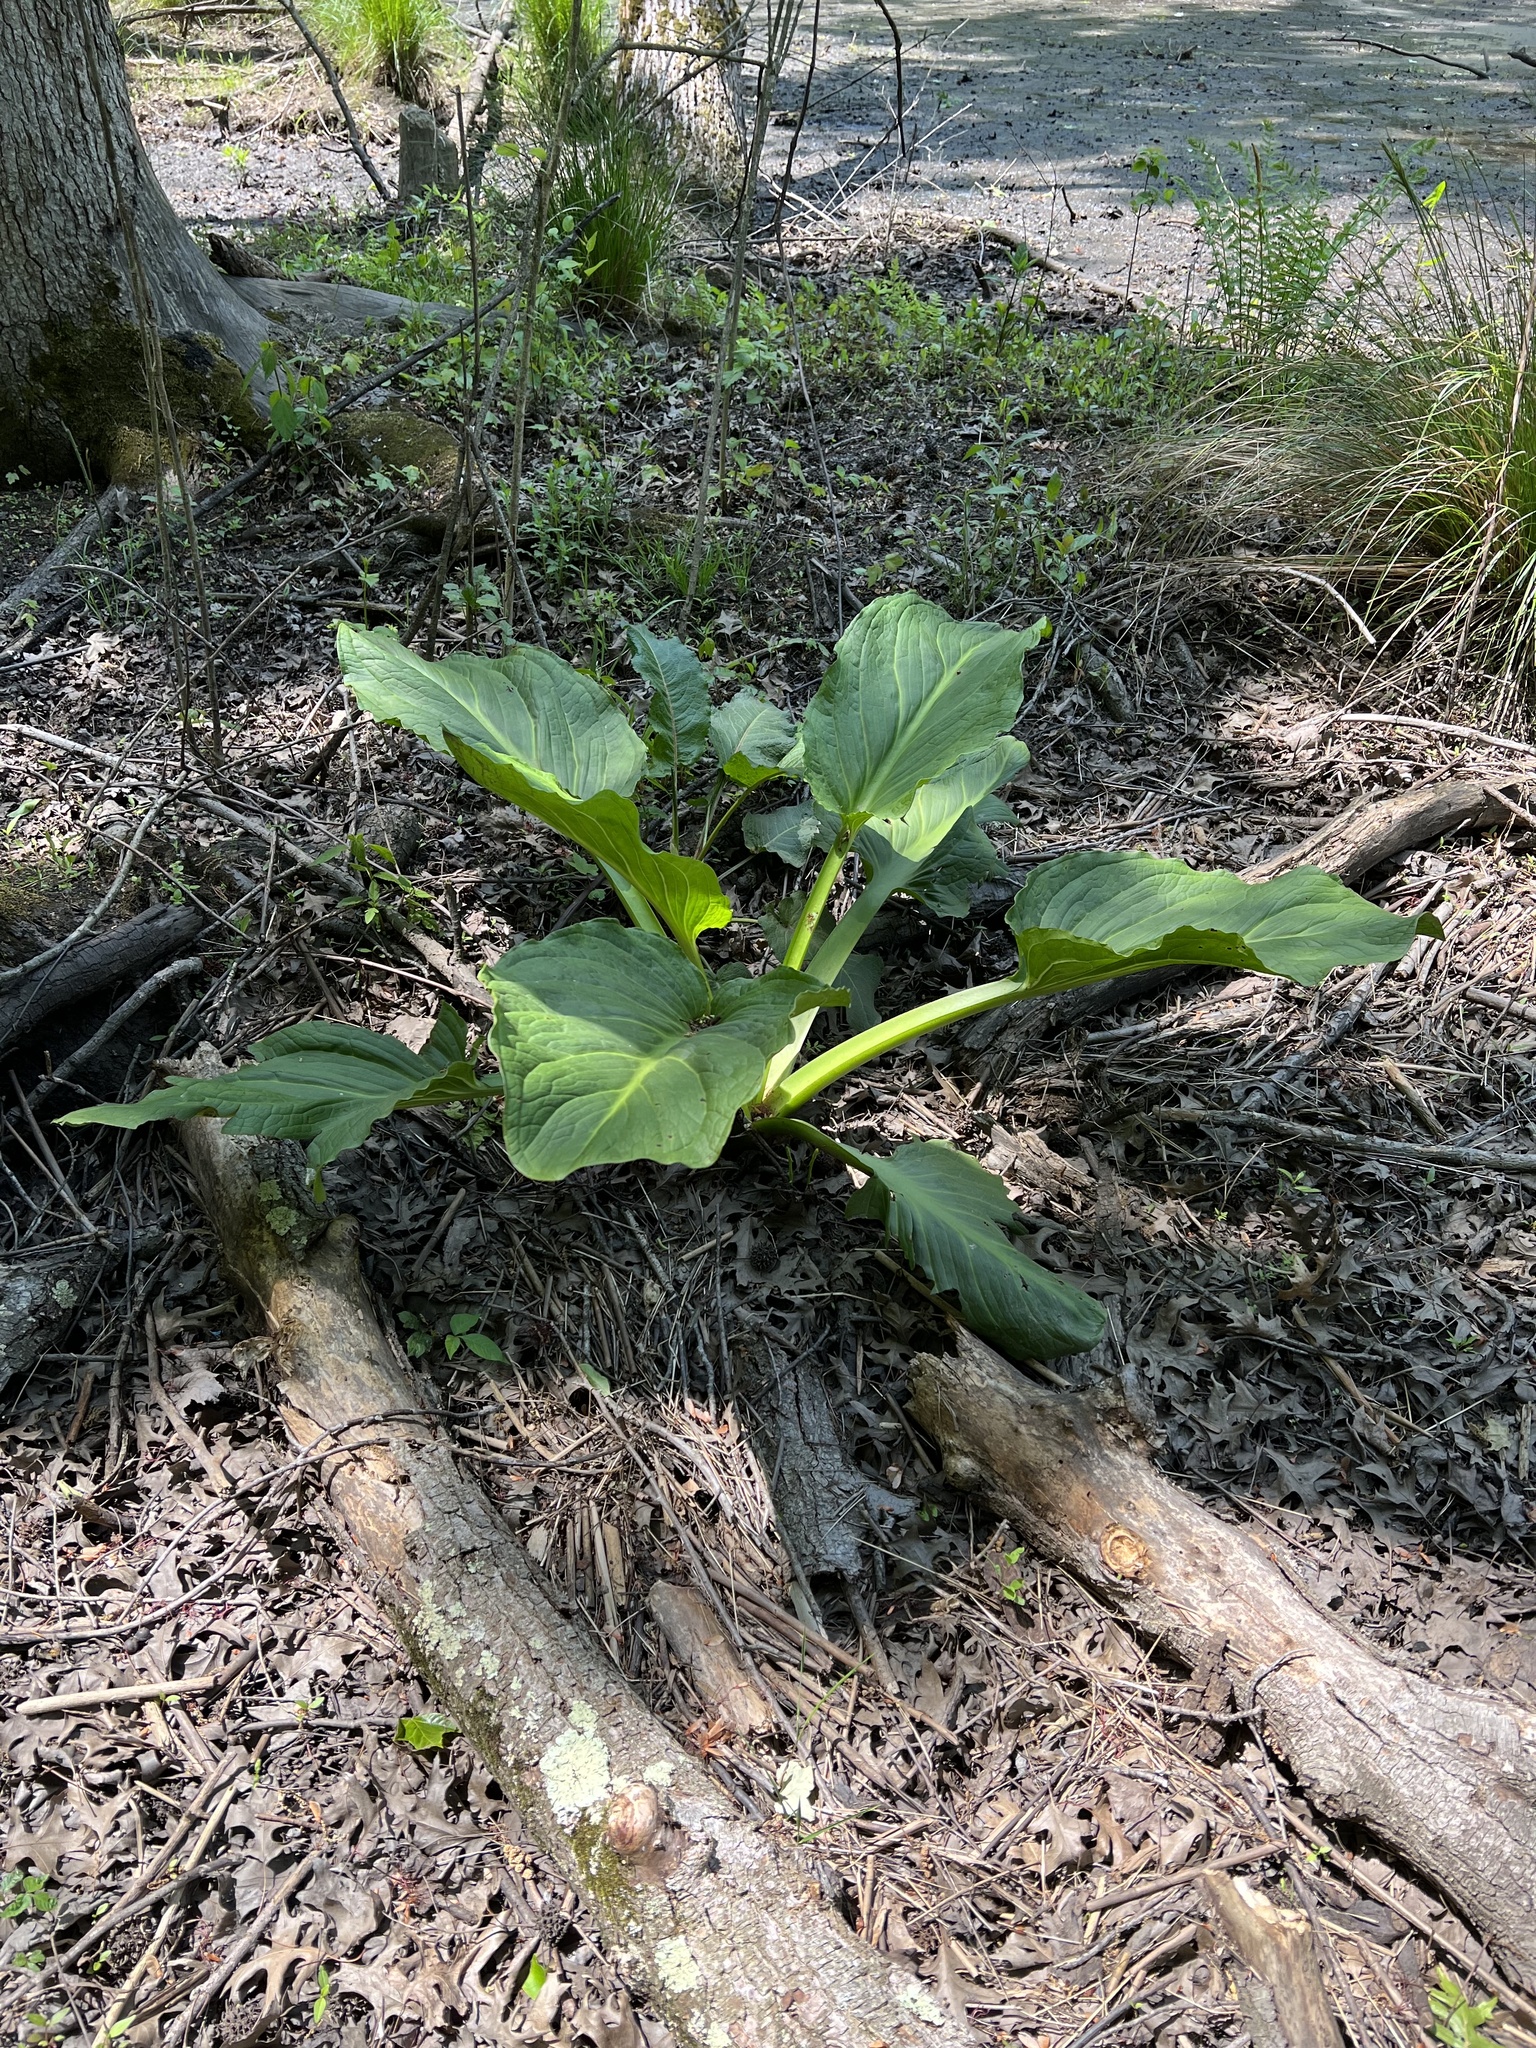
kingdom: Plantae
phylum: Tracheophyta
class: Liliopsida
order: Alismatales
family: Araceae
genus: Symplocarpus
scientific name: Symplocarpus foetidus
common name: Eastern skunk cabbage
